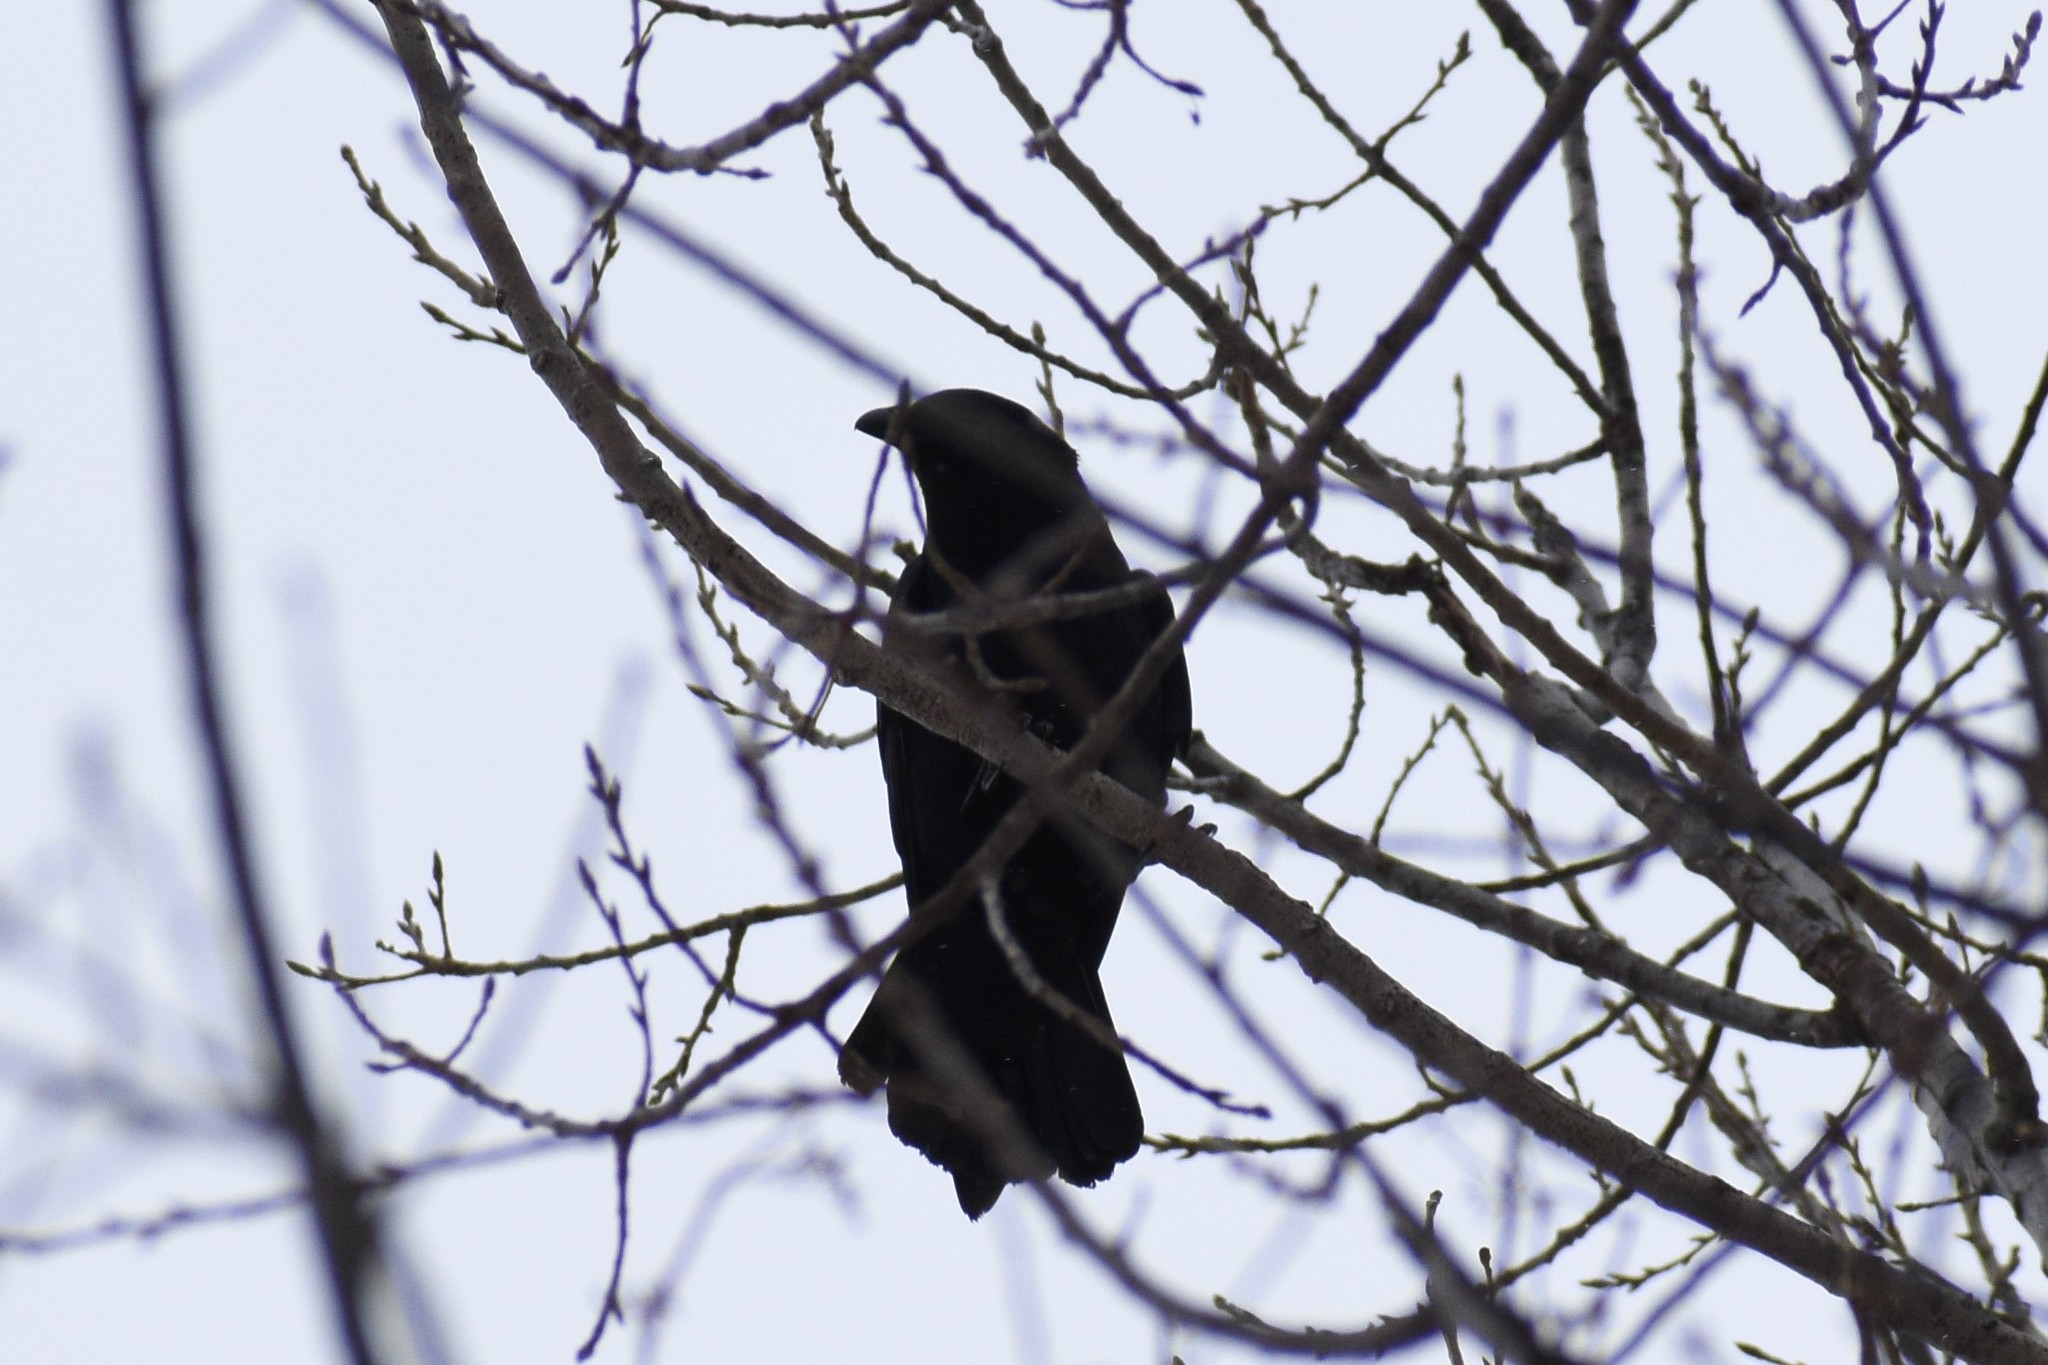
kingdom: Animalia
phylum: Chordata
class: Aves
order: Passeriformes
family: Corvidae
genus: Corvus
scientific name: Corvus brachyrhynchos
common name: American crow
